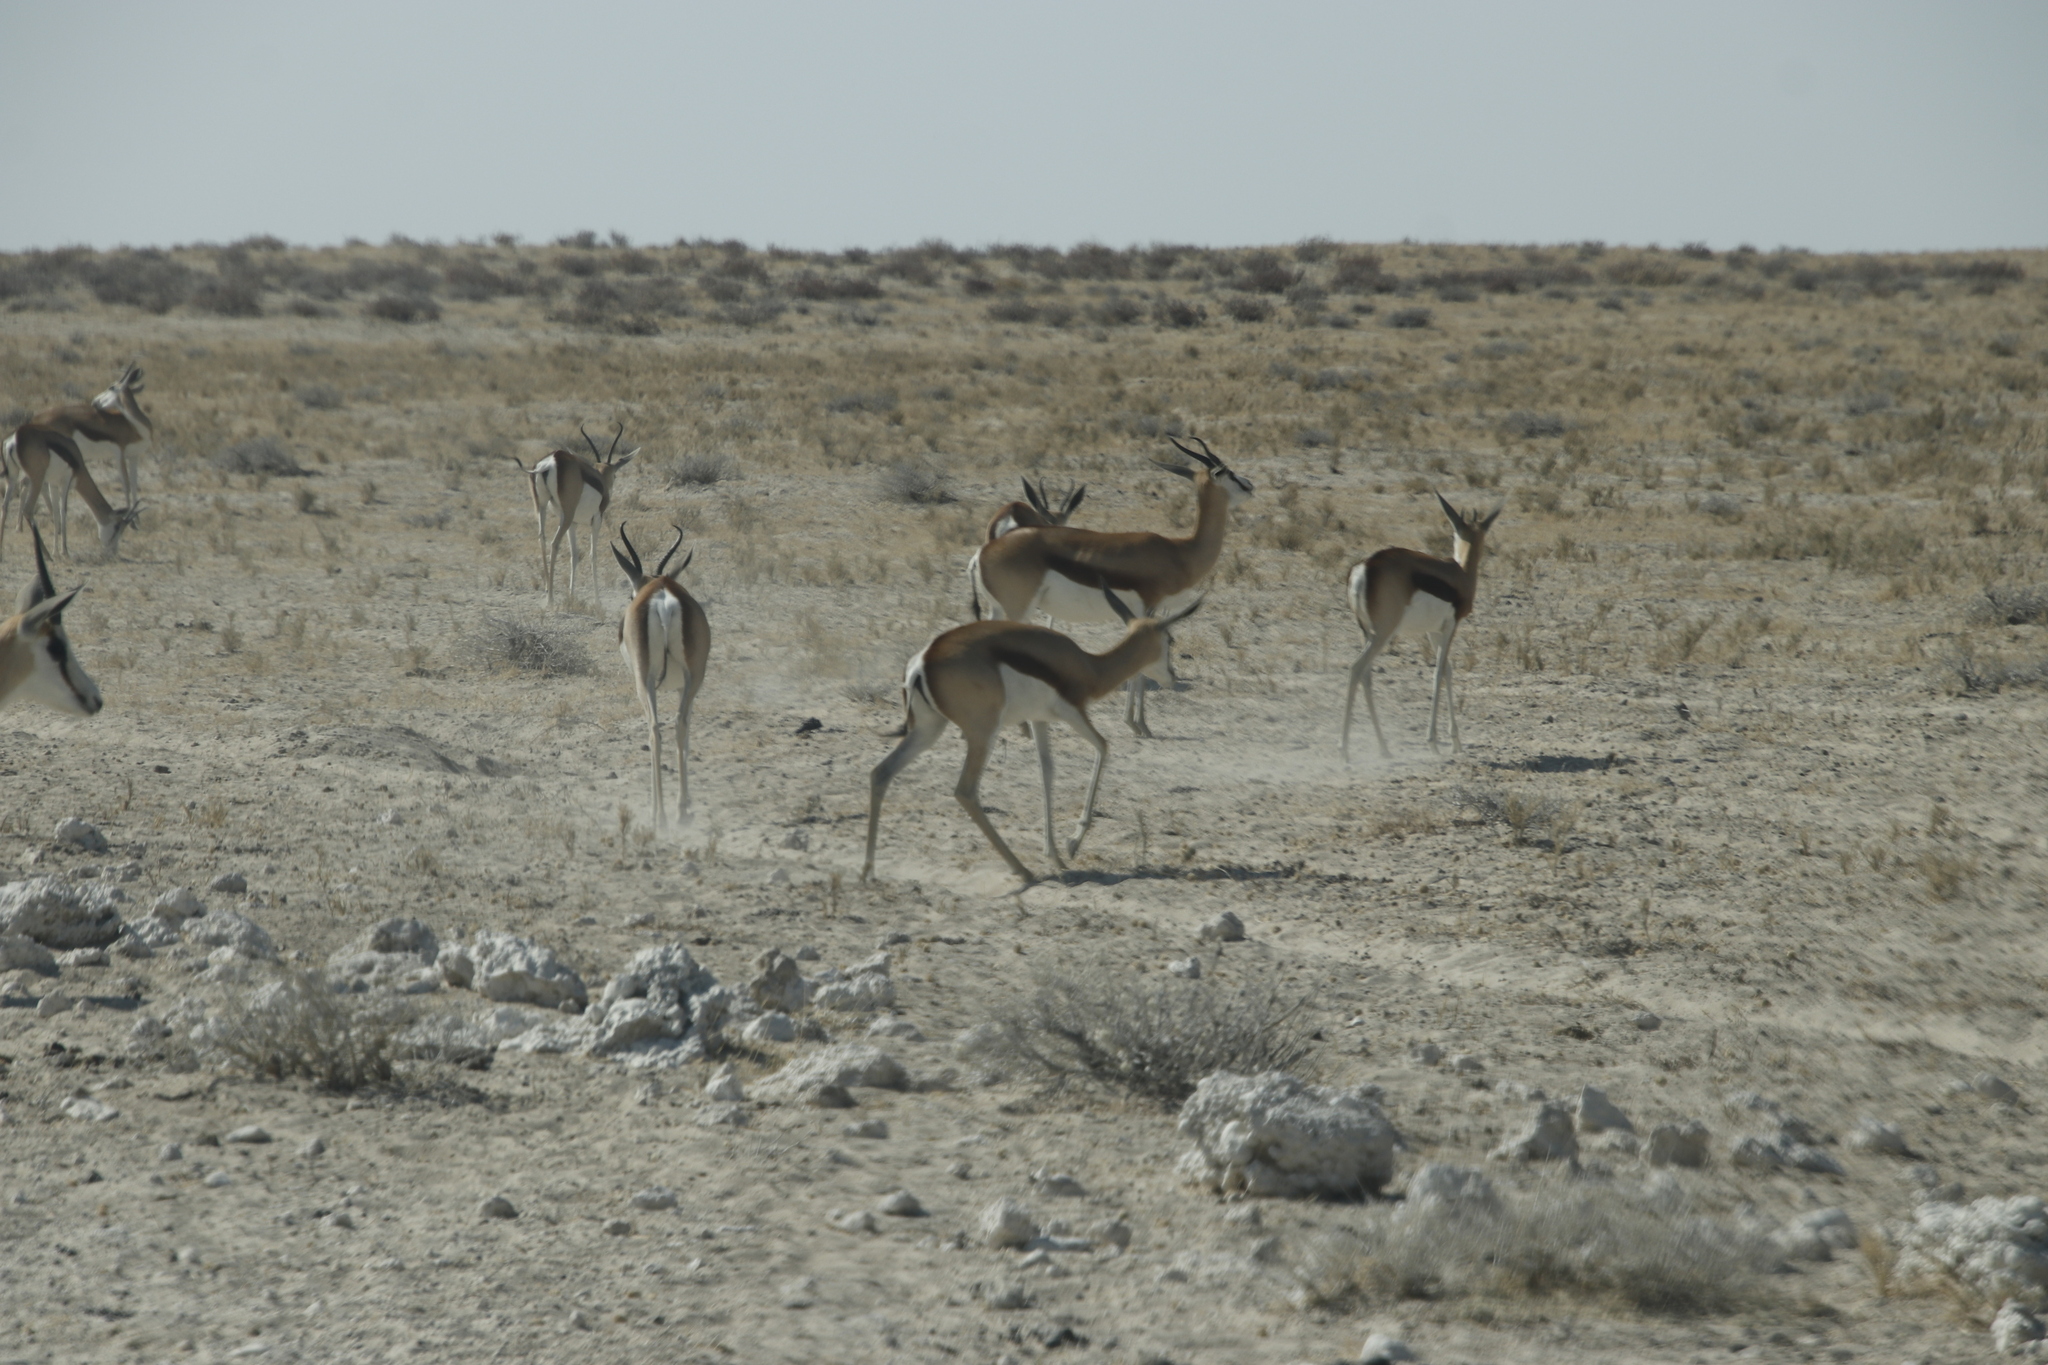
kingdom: Animalia
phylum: Chordata
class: Mammalia
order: Artiodactyla
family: Bovidae
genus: Antidorcas
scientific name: Antidorcas marsupialis
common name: Springbok
